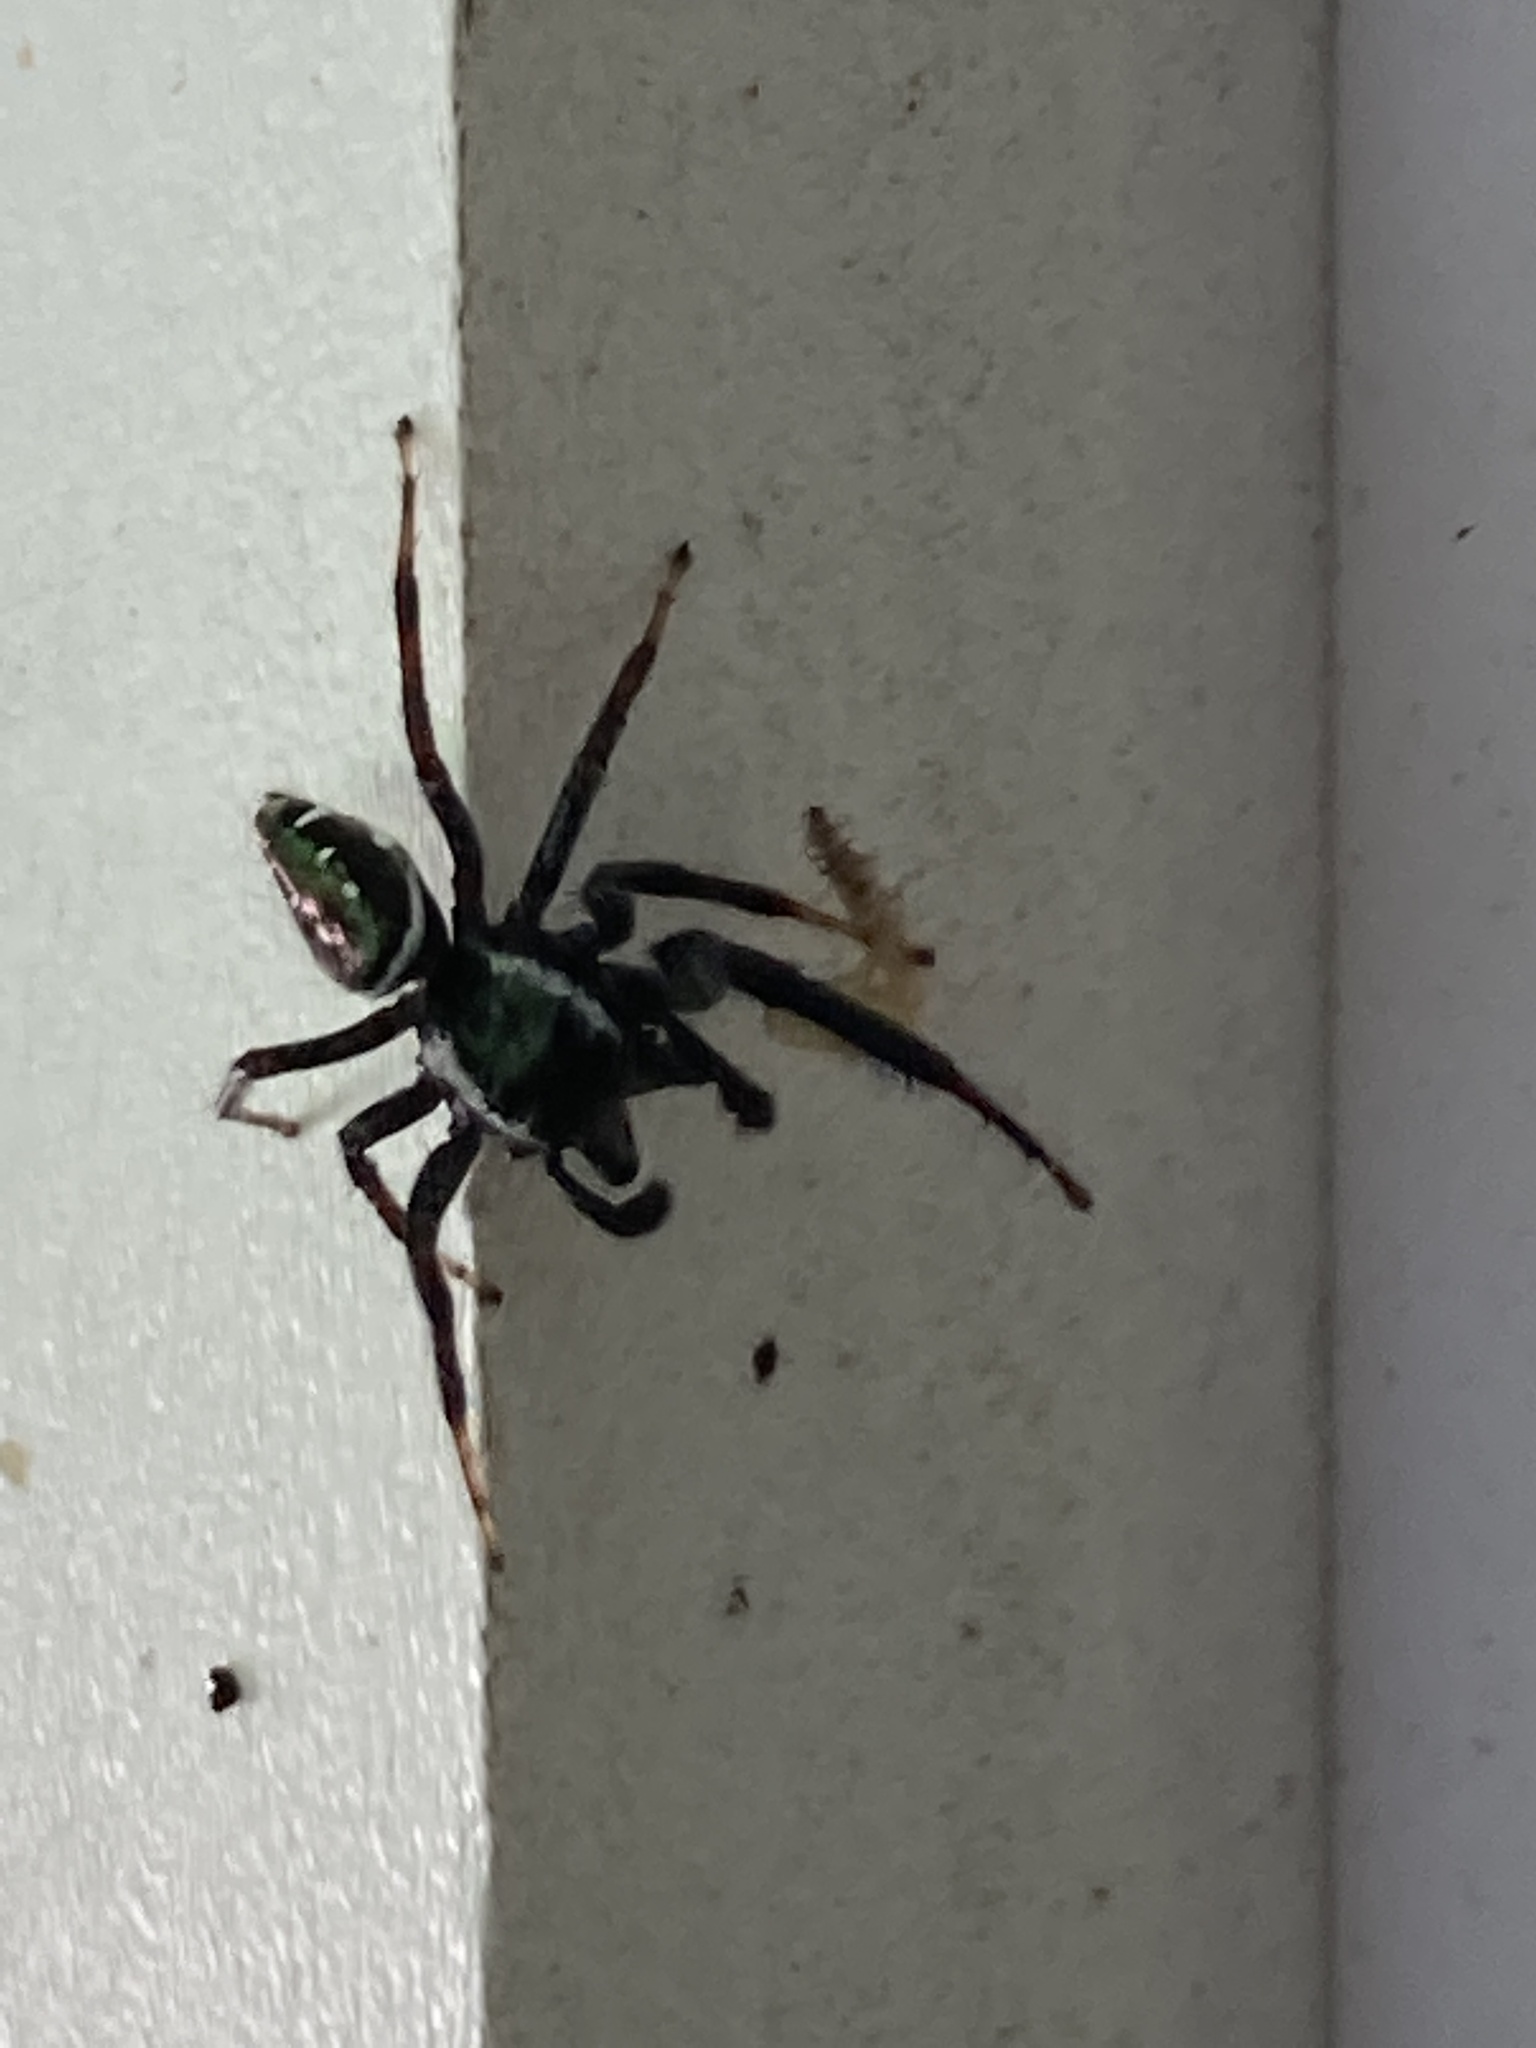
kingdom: Animalia
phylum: Arthropoda
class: Arachnida
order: Araneae
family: Salticidae
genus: Paraphidippus
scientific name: Paraphidippus aurantius
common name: Jumping spiders
